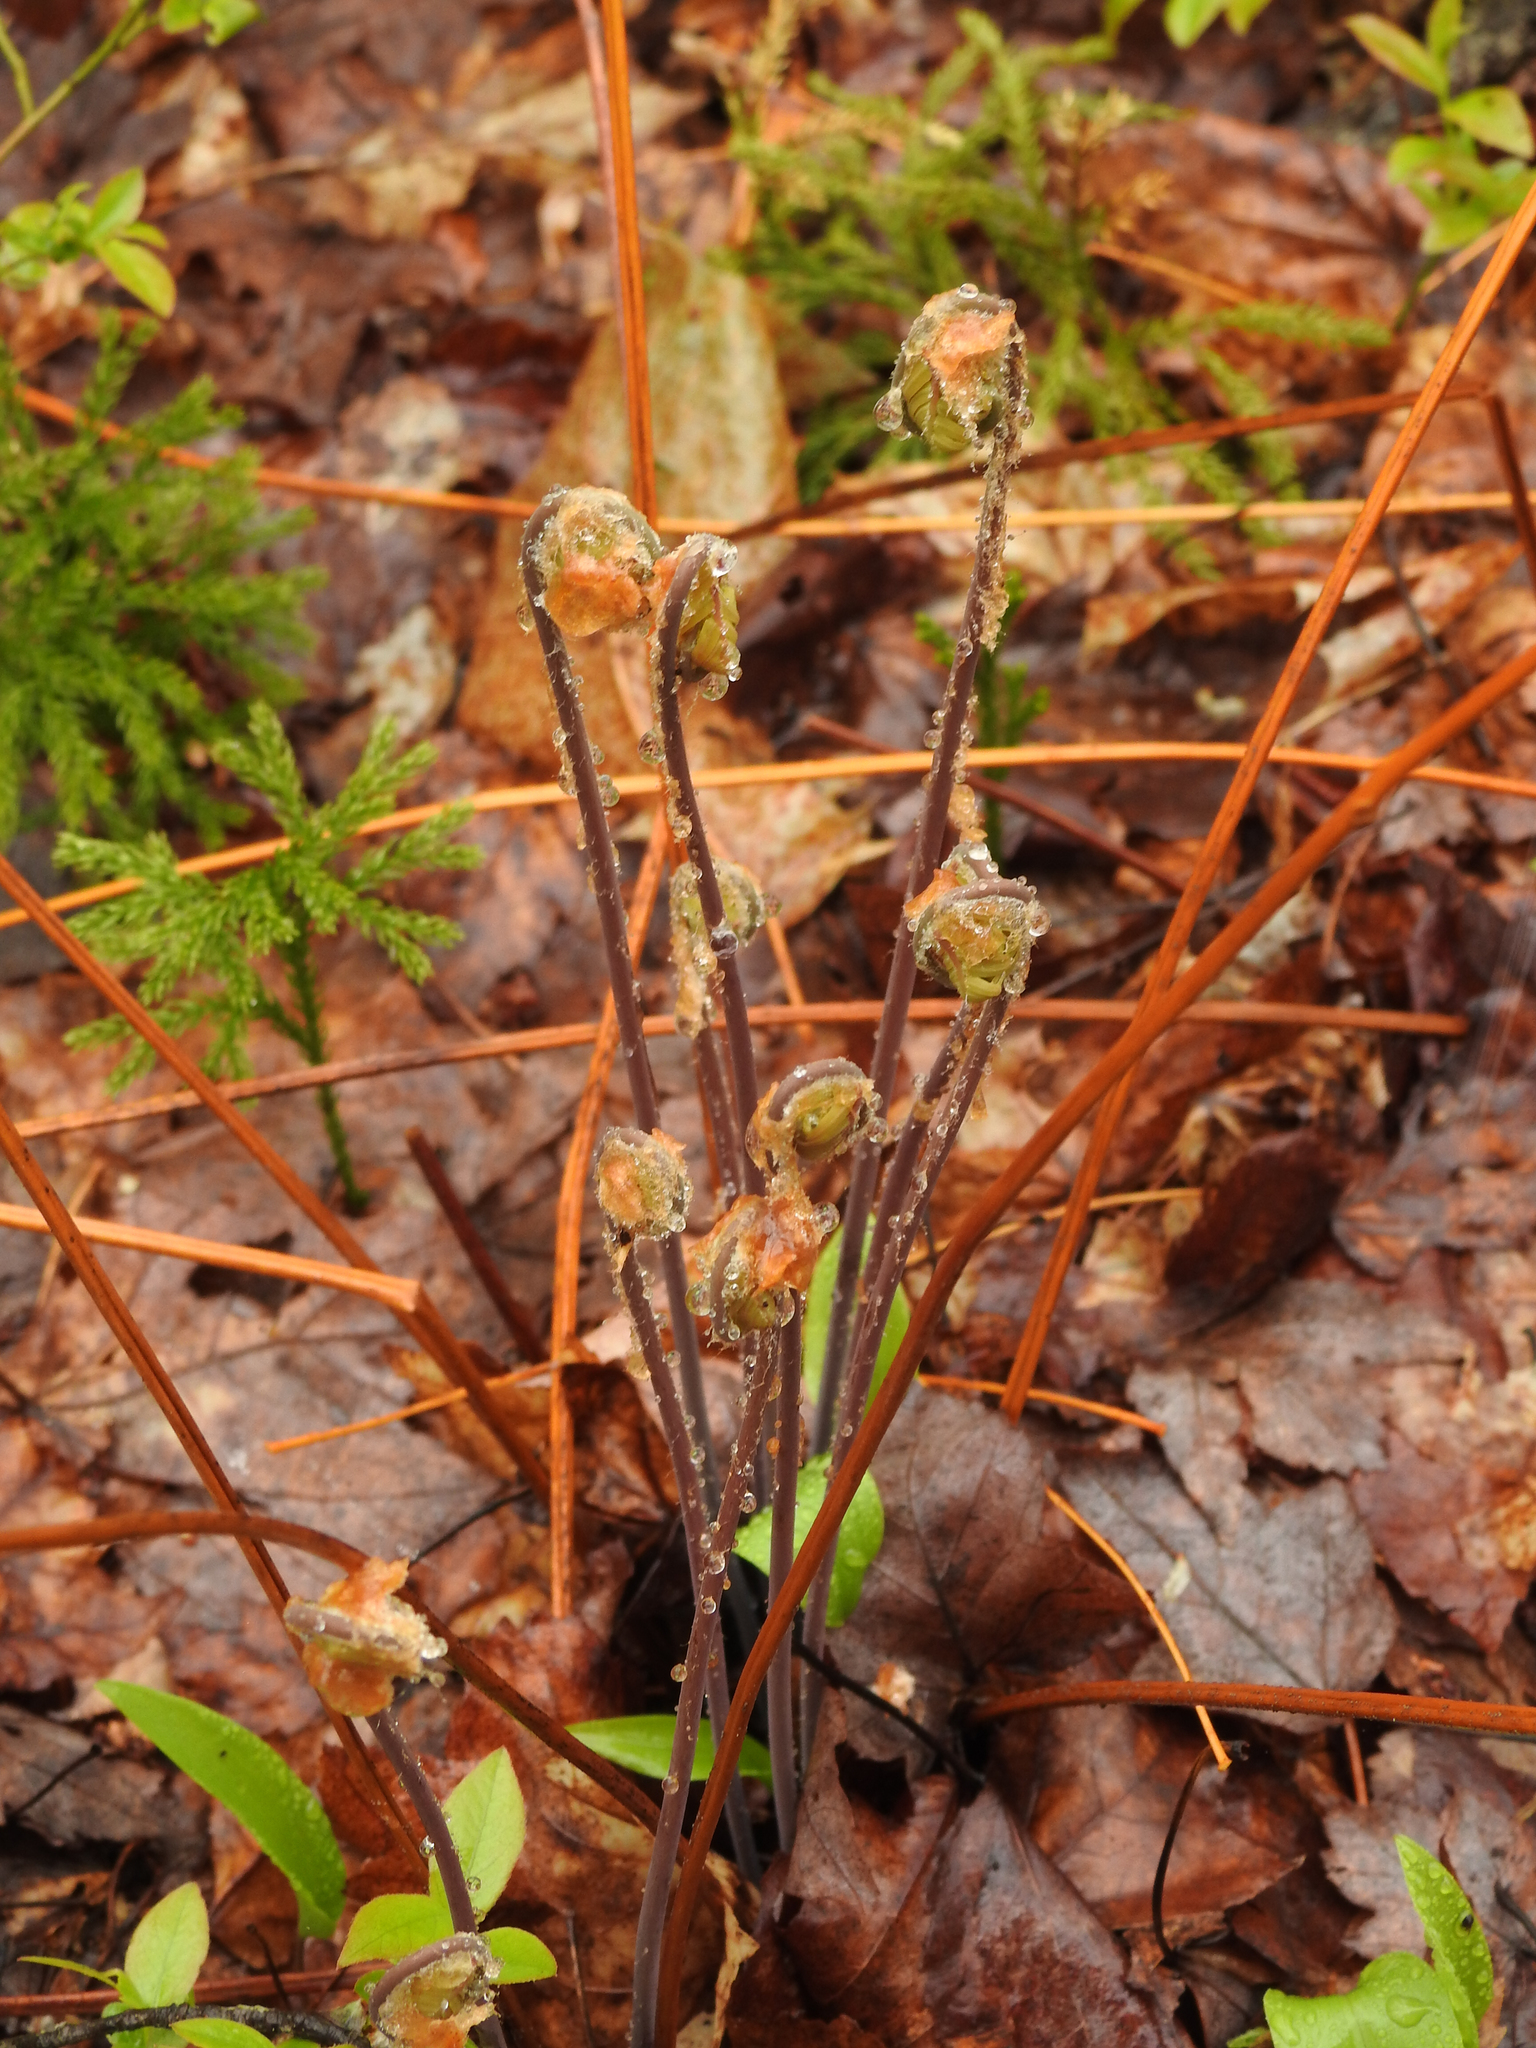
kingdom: Plantae
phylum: Tracheophyta
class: Polypodiopsida
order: Osmundales
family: Osmundaceae
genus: Osmunda
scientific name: Osmunda spectabilis
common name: American royal fern
